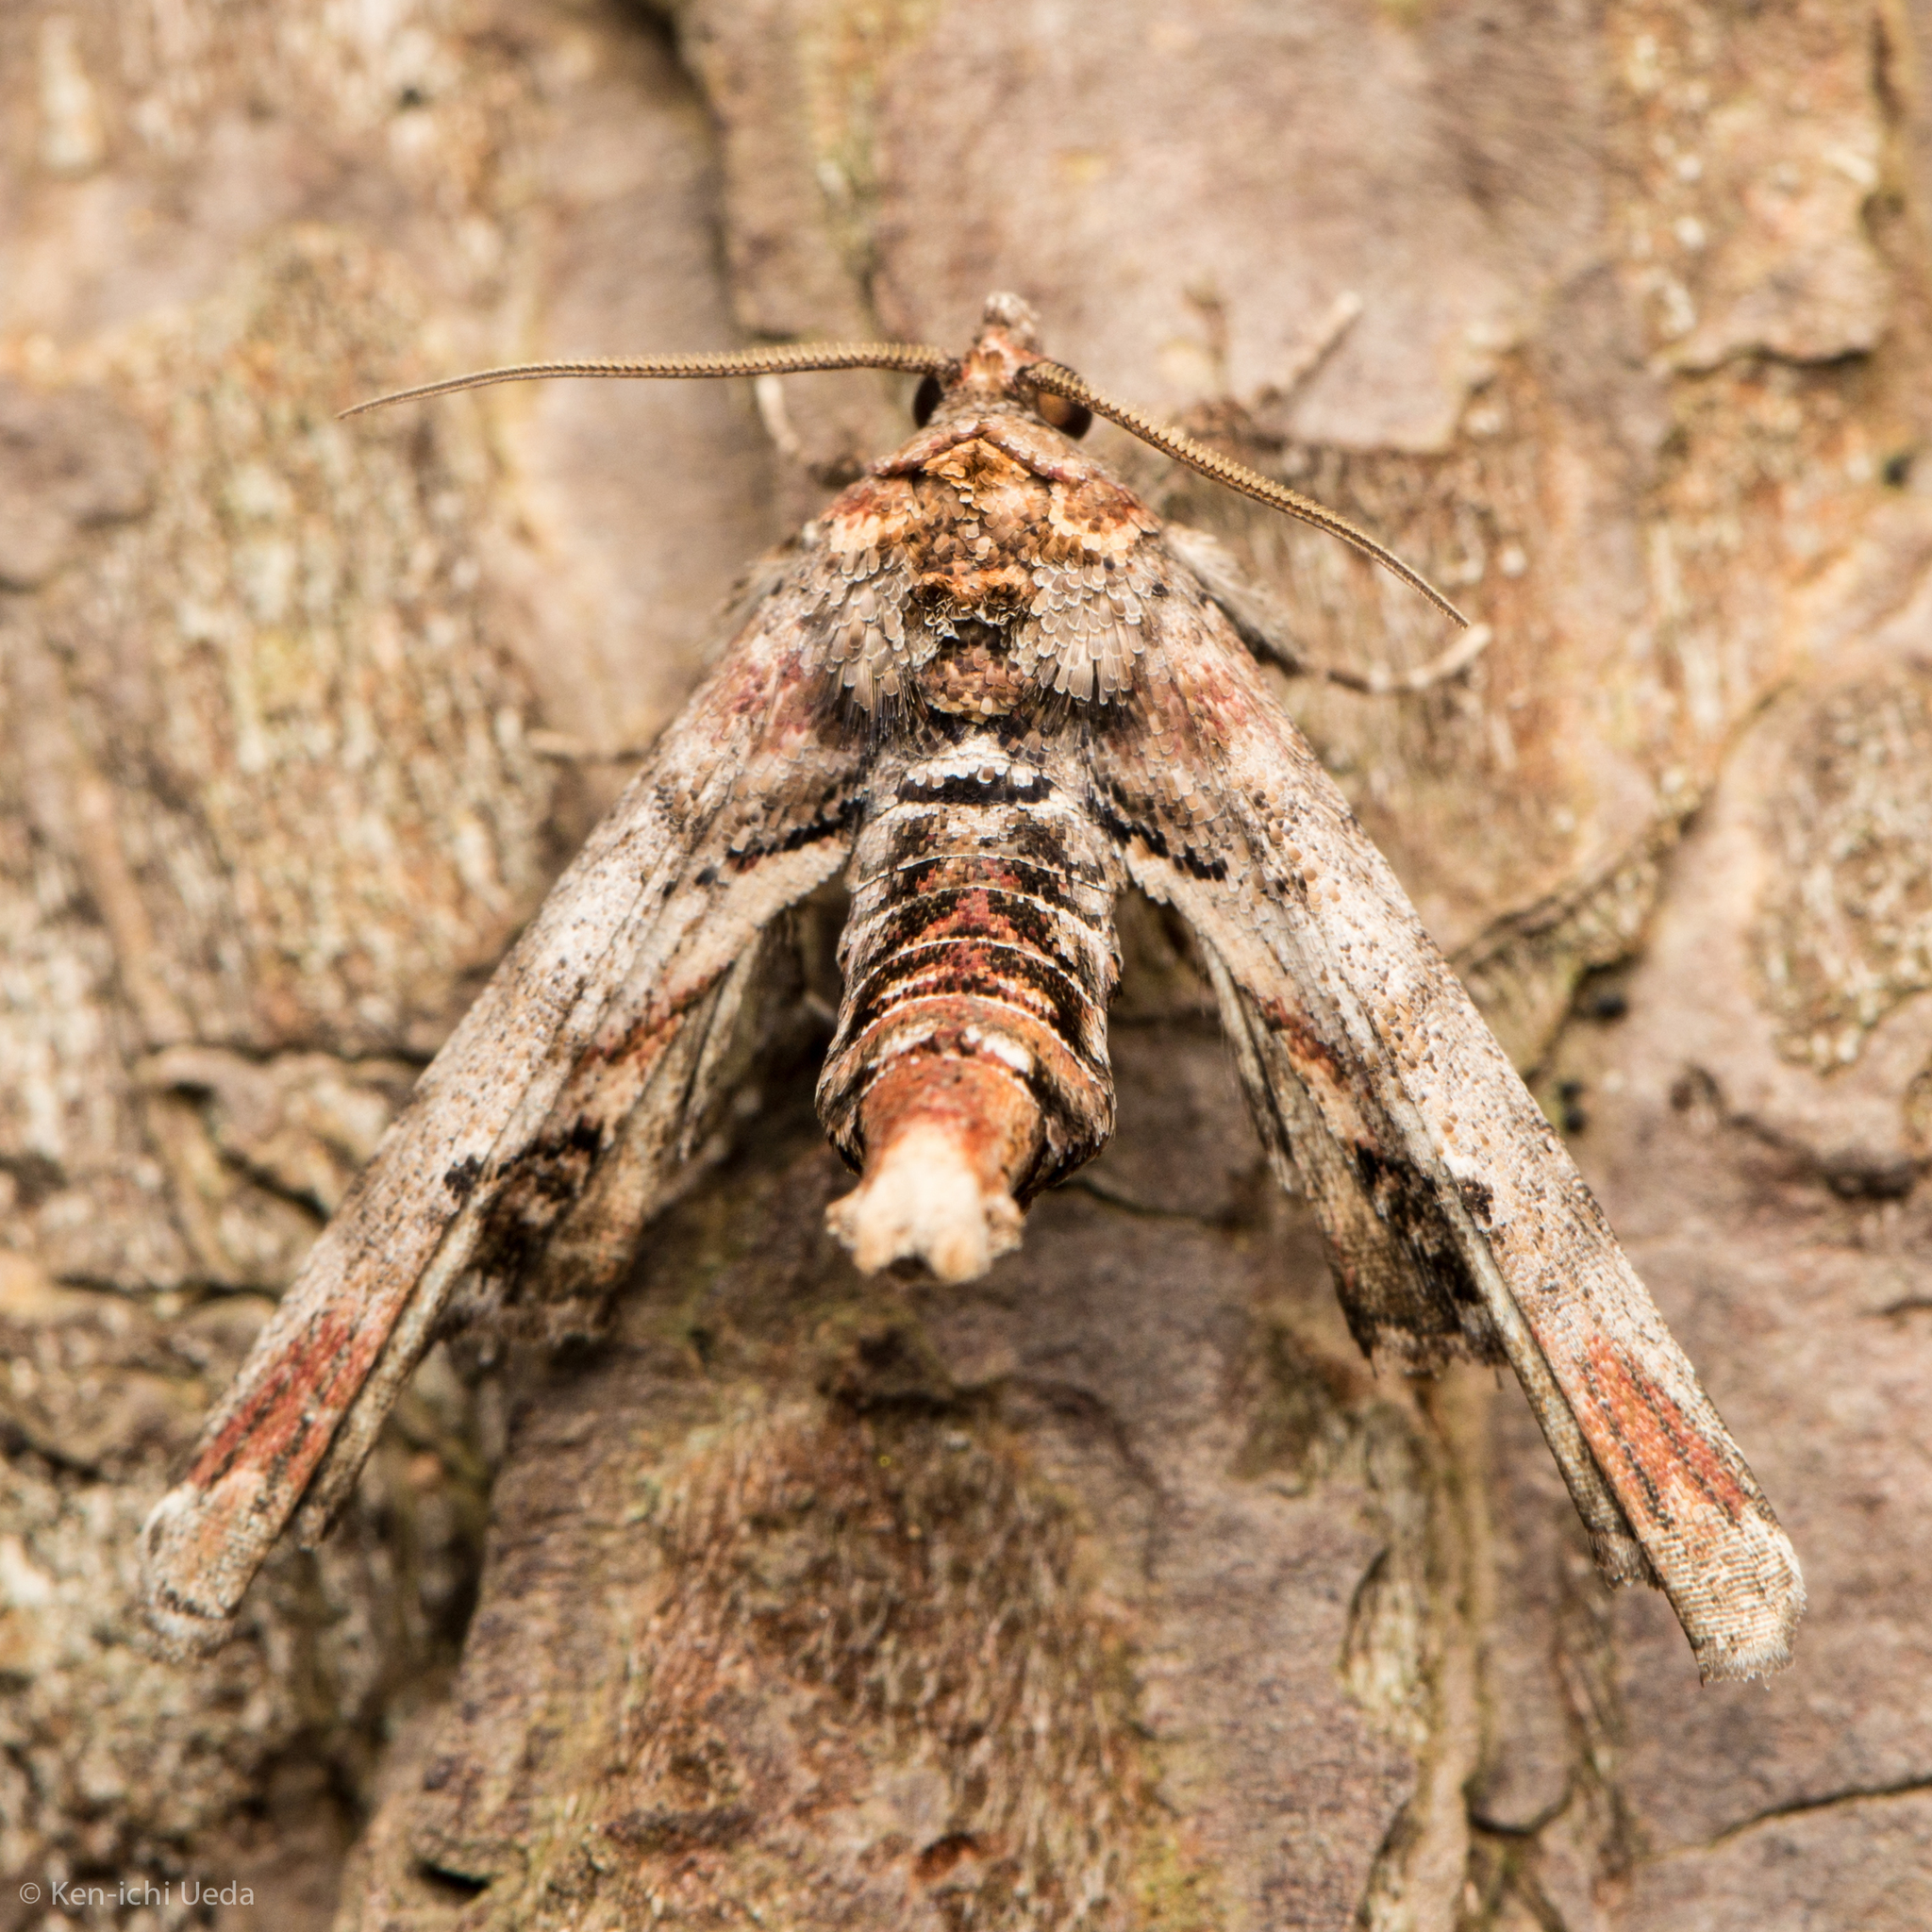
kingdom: Animalia
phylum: Arthropoda
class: Insecta
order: Lepidoptera
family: Euteliidae
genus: Marathyssa
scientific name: Marathyssa inficita
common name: Dark marathyssa moth
